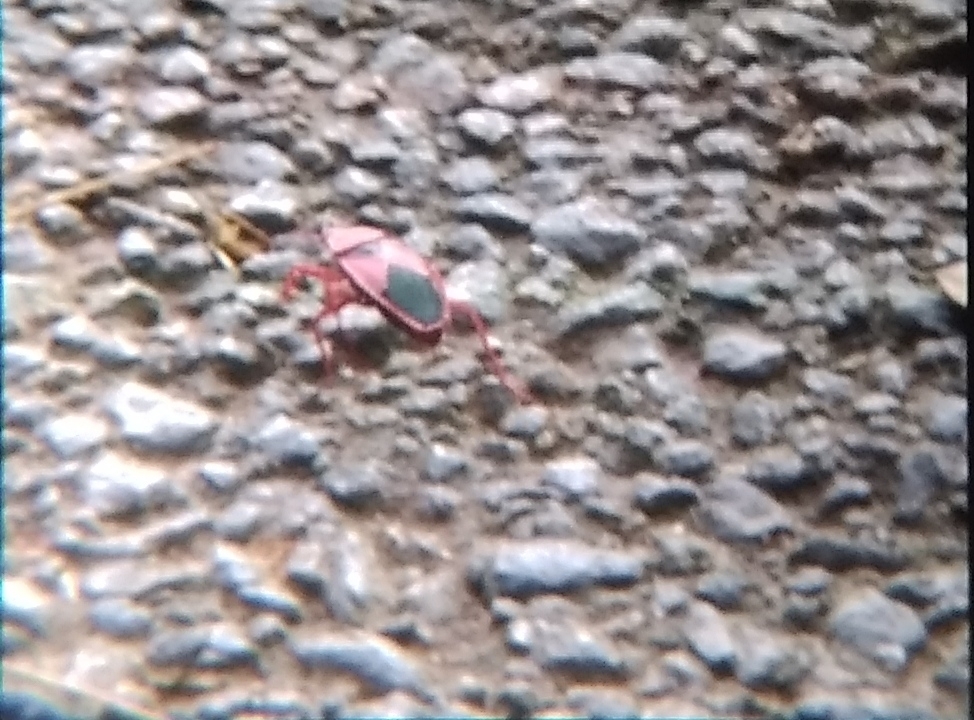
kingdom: Animalia
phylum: Arthropoda
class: Insecta
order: Hemiptera
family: Pyrrhocoridae
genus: Probergrothius
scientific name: Probergrothius
